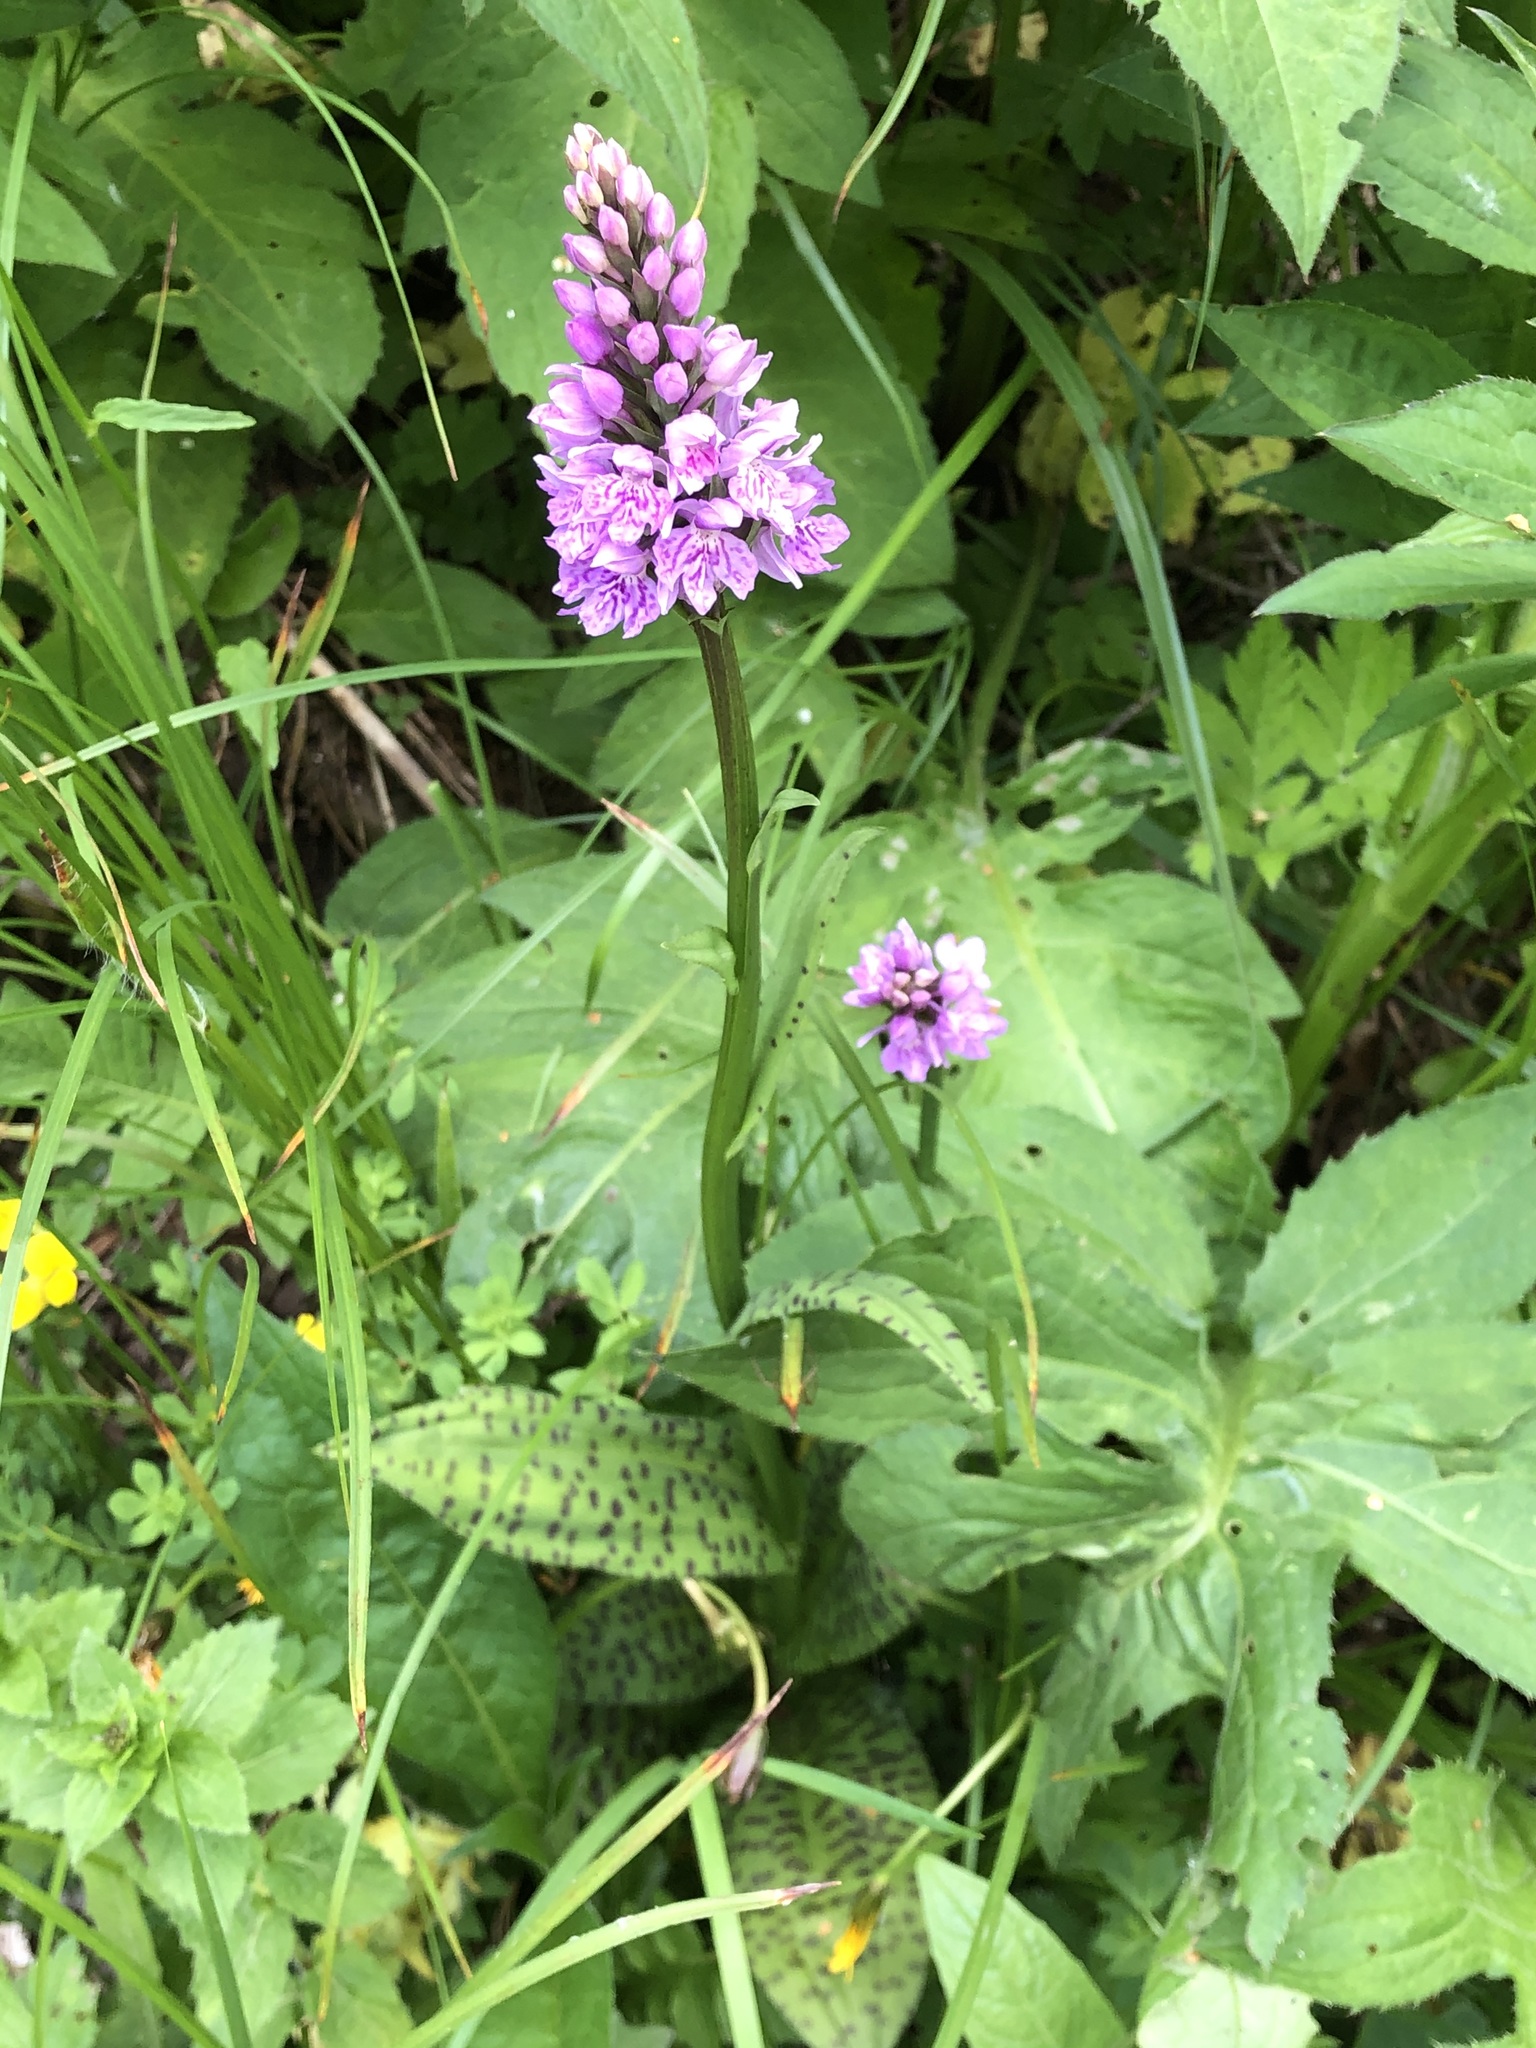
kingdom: Plantae
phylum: Tracheophyta
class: Liliopsida
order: Asparagales
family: Orchidaceae
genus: Dactylorhiza
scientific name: Dactylorhiza maculata
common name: Heath spotted-orchid
